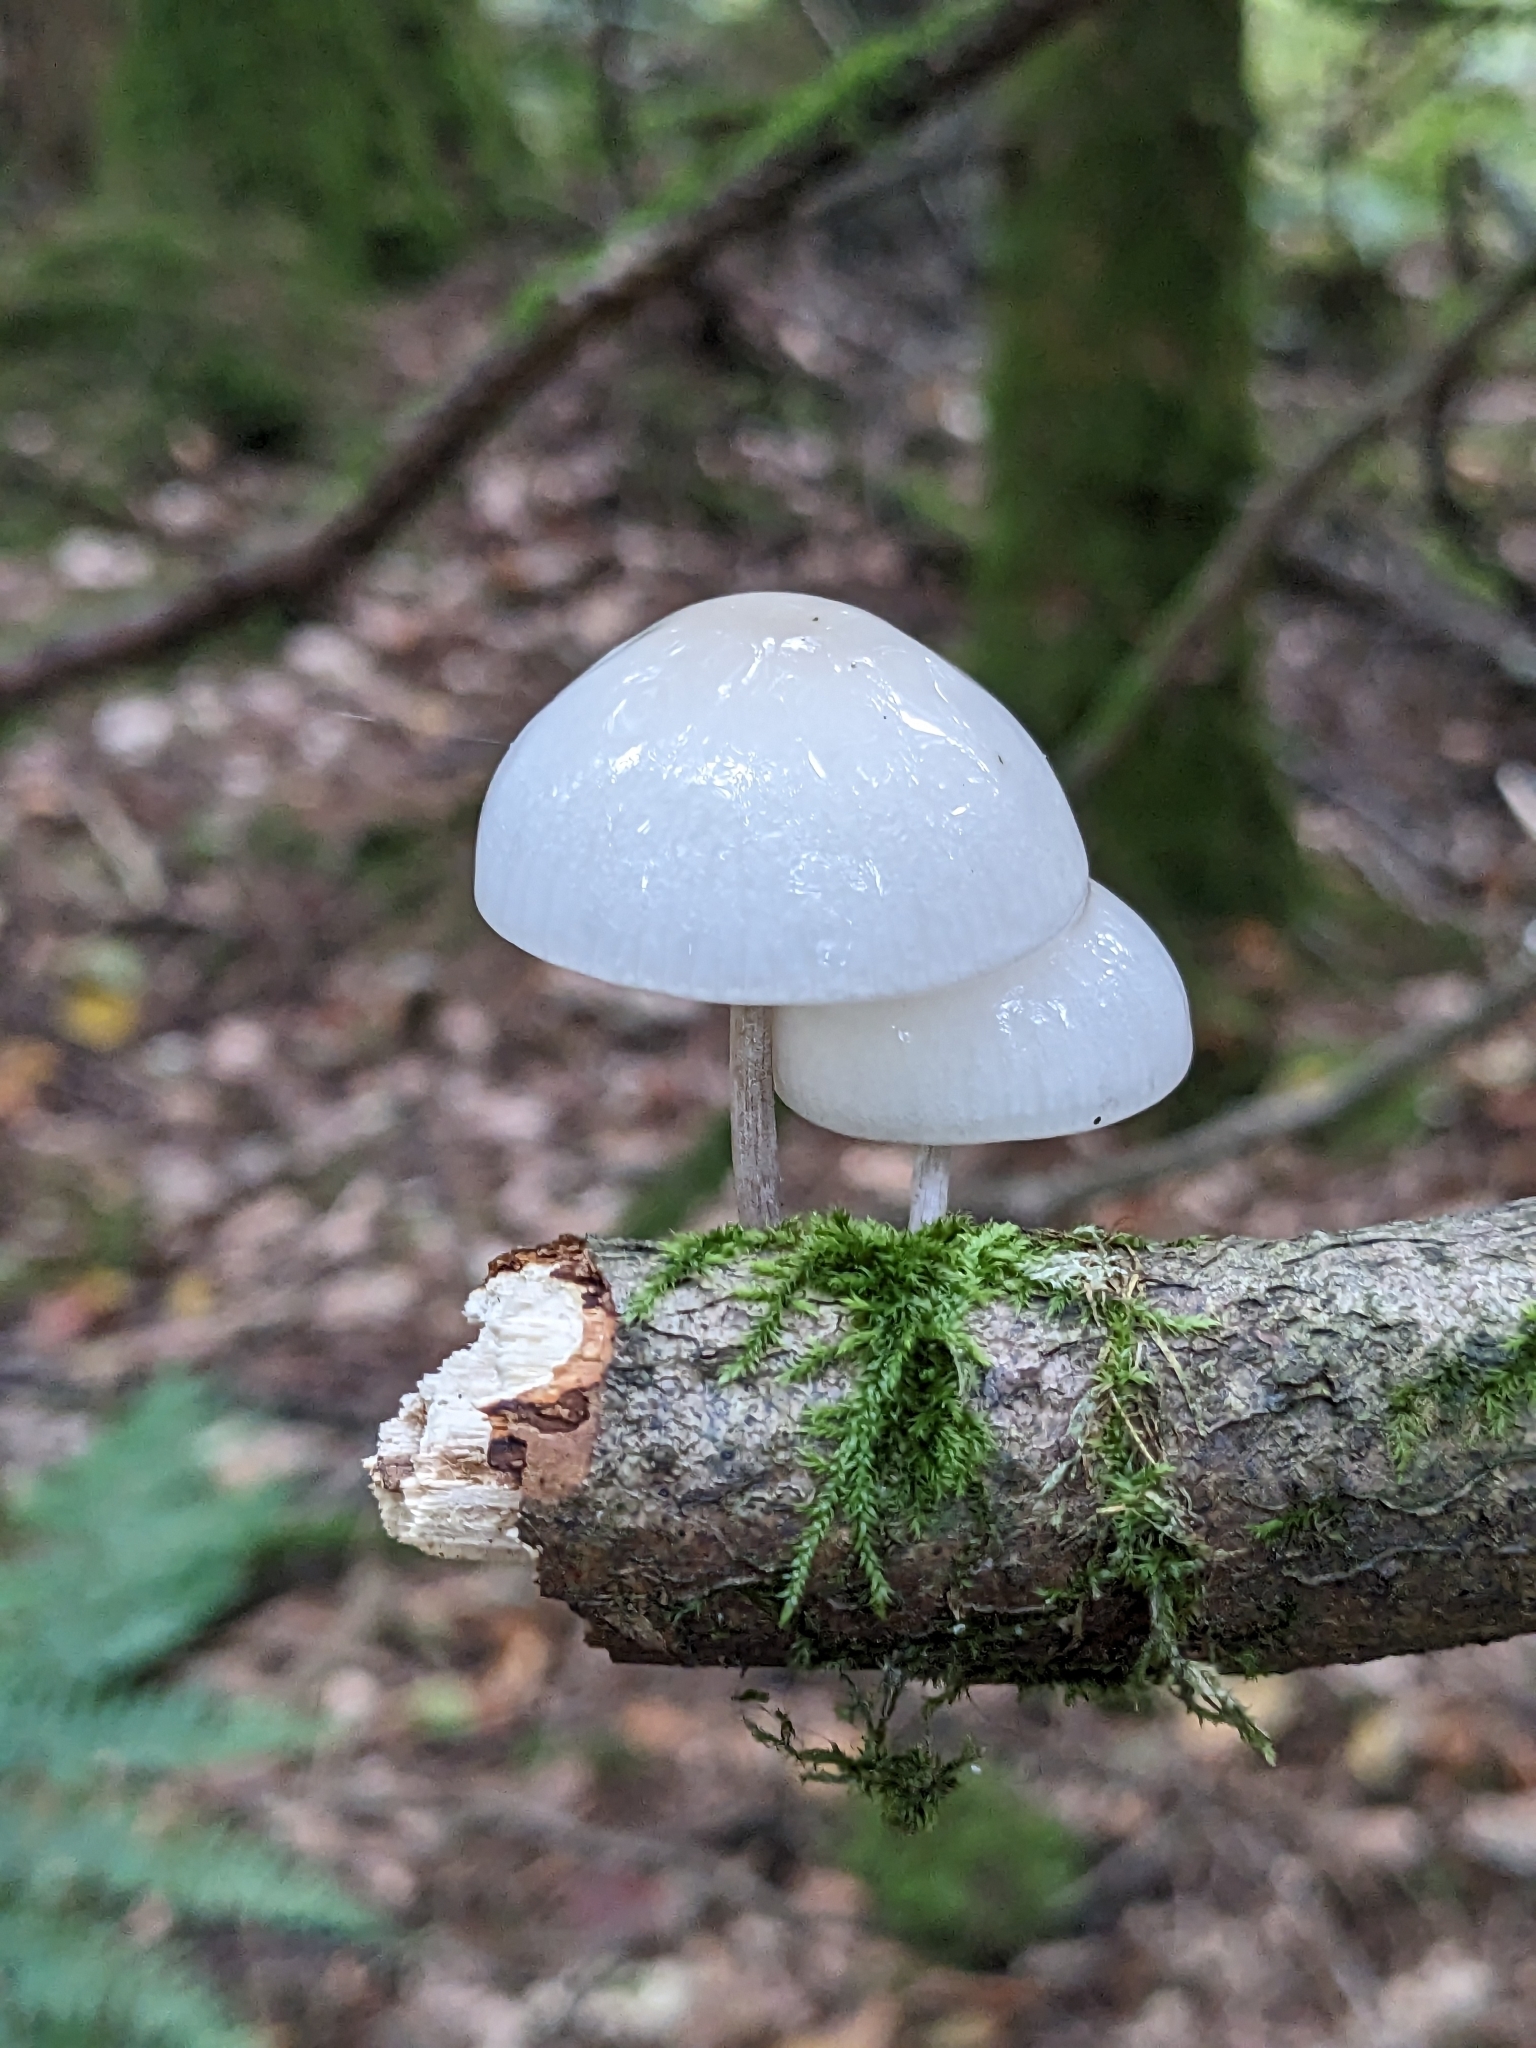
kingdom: Fungi
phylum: Basidiomycota
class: Agaricomycetes
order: Agaricales
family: Physalacriaceae
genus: Mucidula
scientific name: Mucidula mucida
